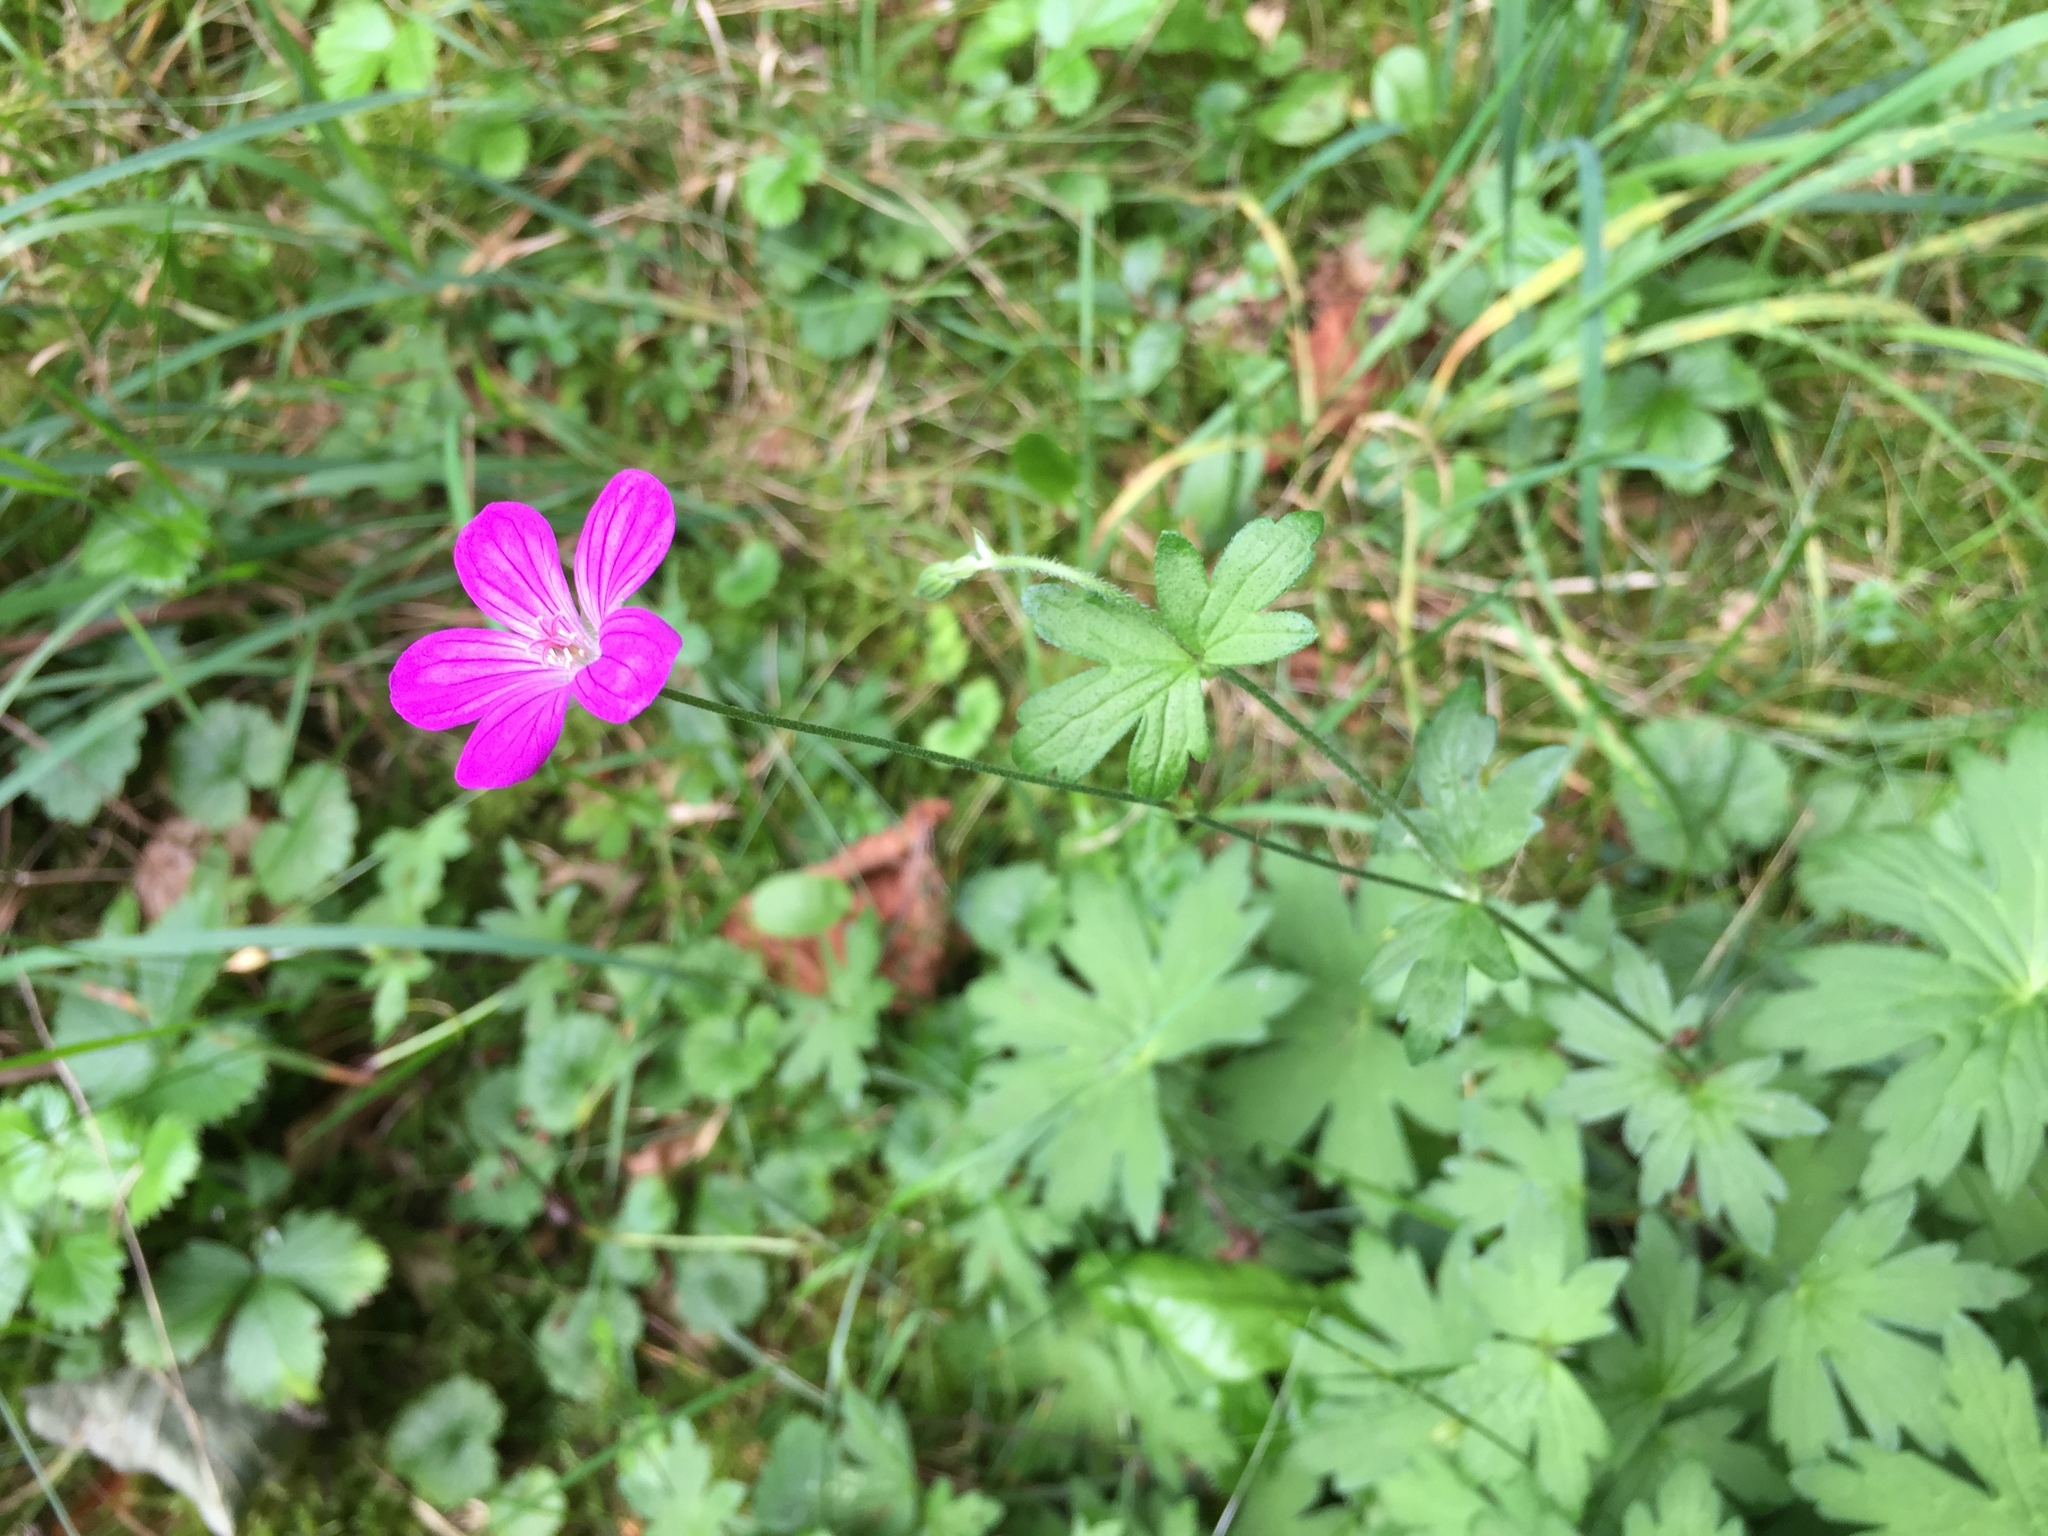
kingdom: Plantae
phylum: Tracheophyta
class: Magnoliopsida
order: Geraniales
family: Geraniaceae
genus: Geranium
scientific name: Geranium palustre
